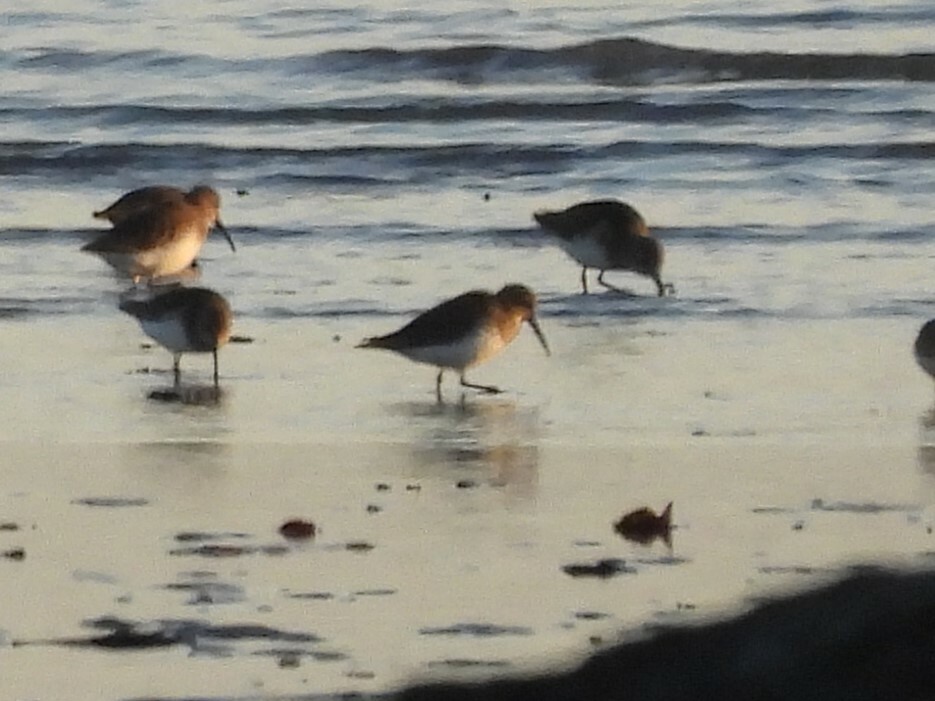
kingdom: Animalia
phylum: Chordata
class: Aves
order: Charadriiformes
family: Scolopacidae
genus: Calidris
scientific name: Calidris alpina
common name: Dunlin
